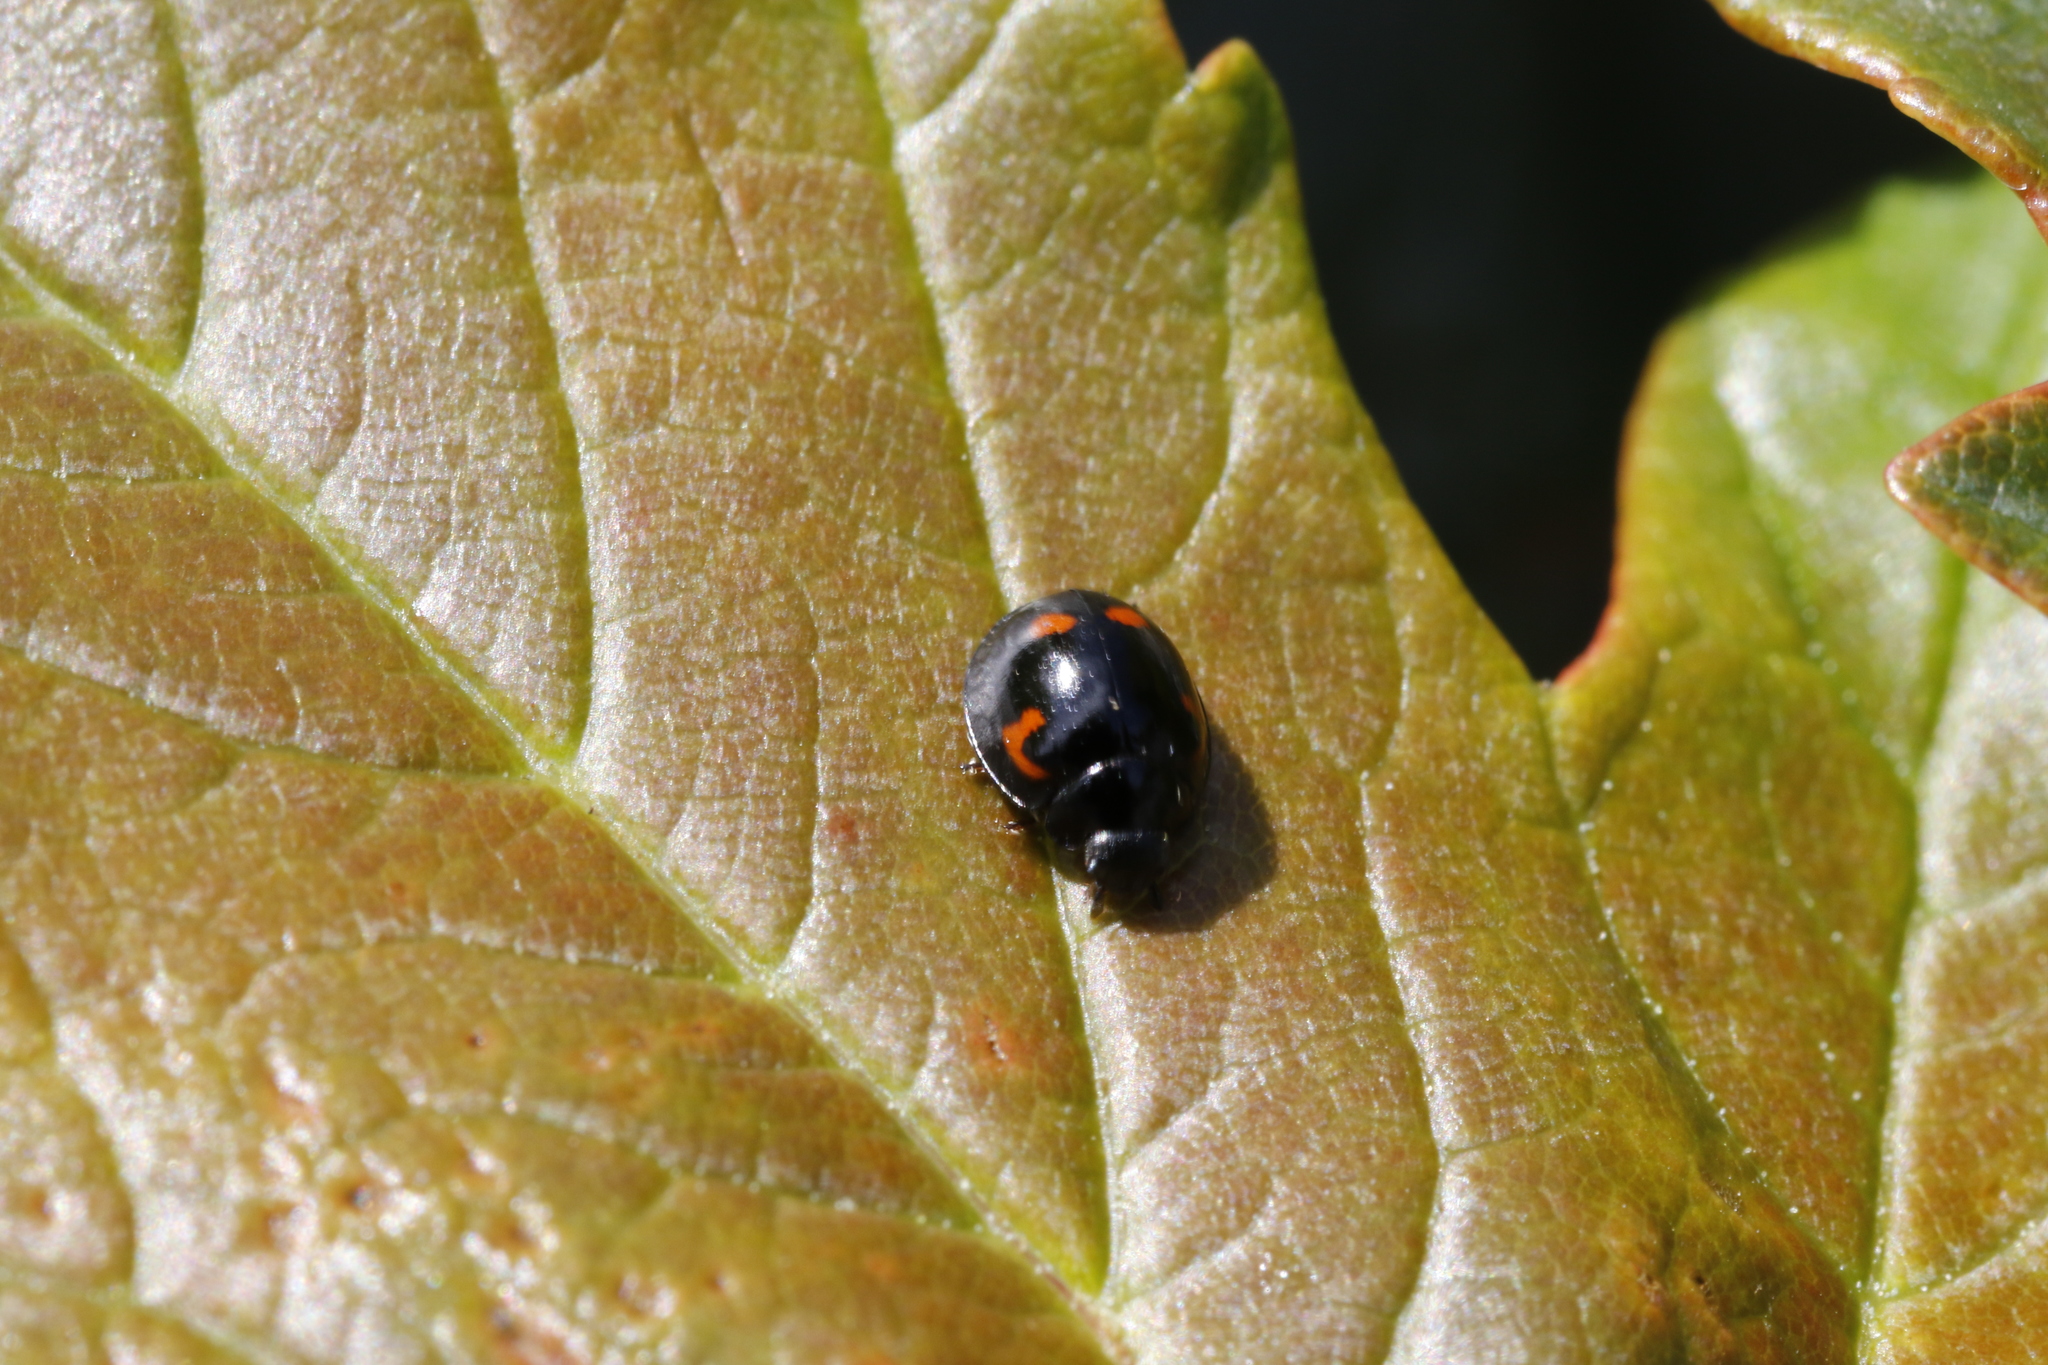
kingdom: Animalia
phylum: Arthropoda
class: Insecta
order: Coleoptera
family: Coccinellidae
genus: Brumus
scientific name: Brumus quadripustulatus
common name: Ladybird beetle
